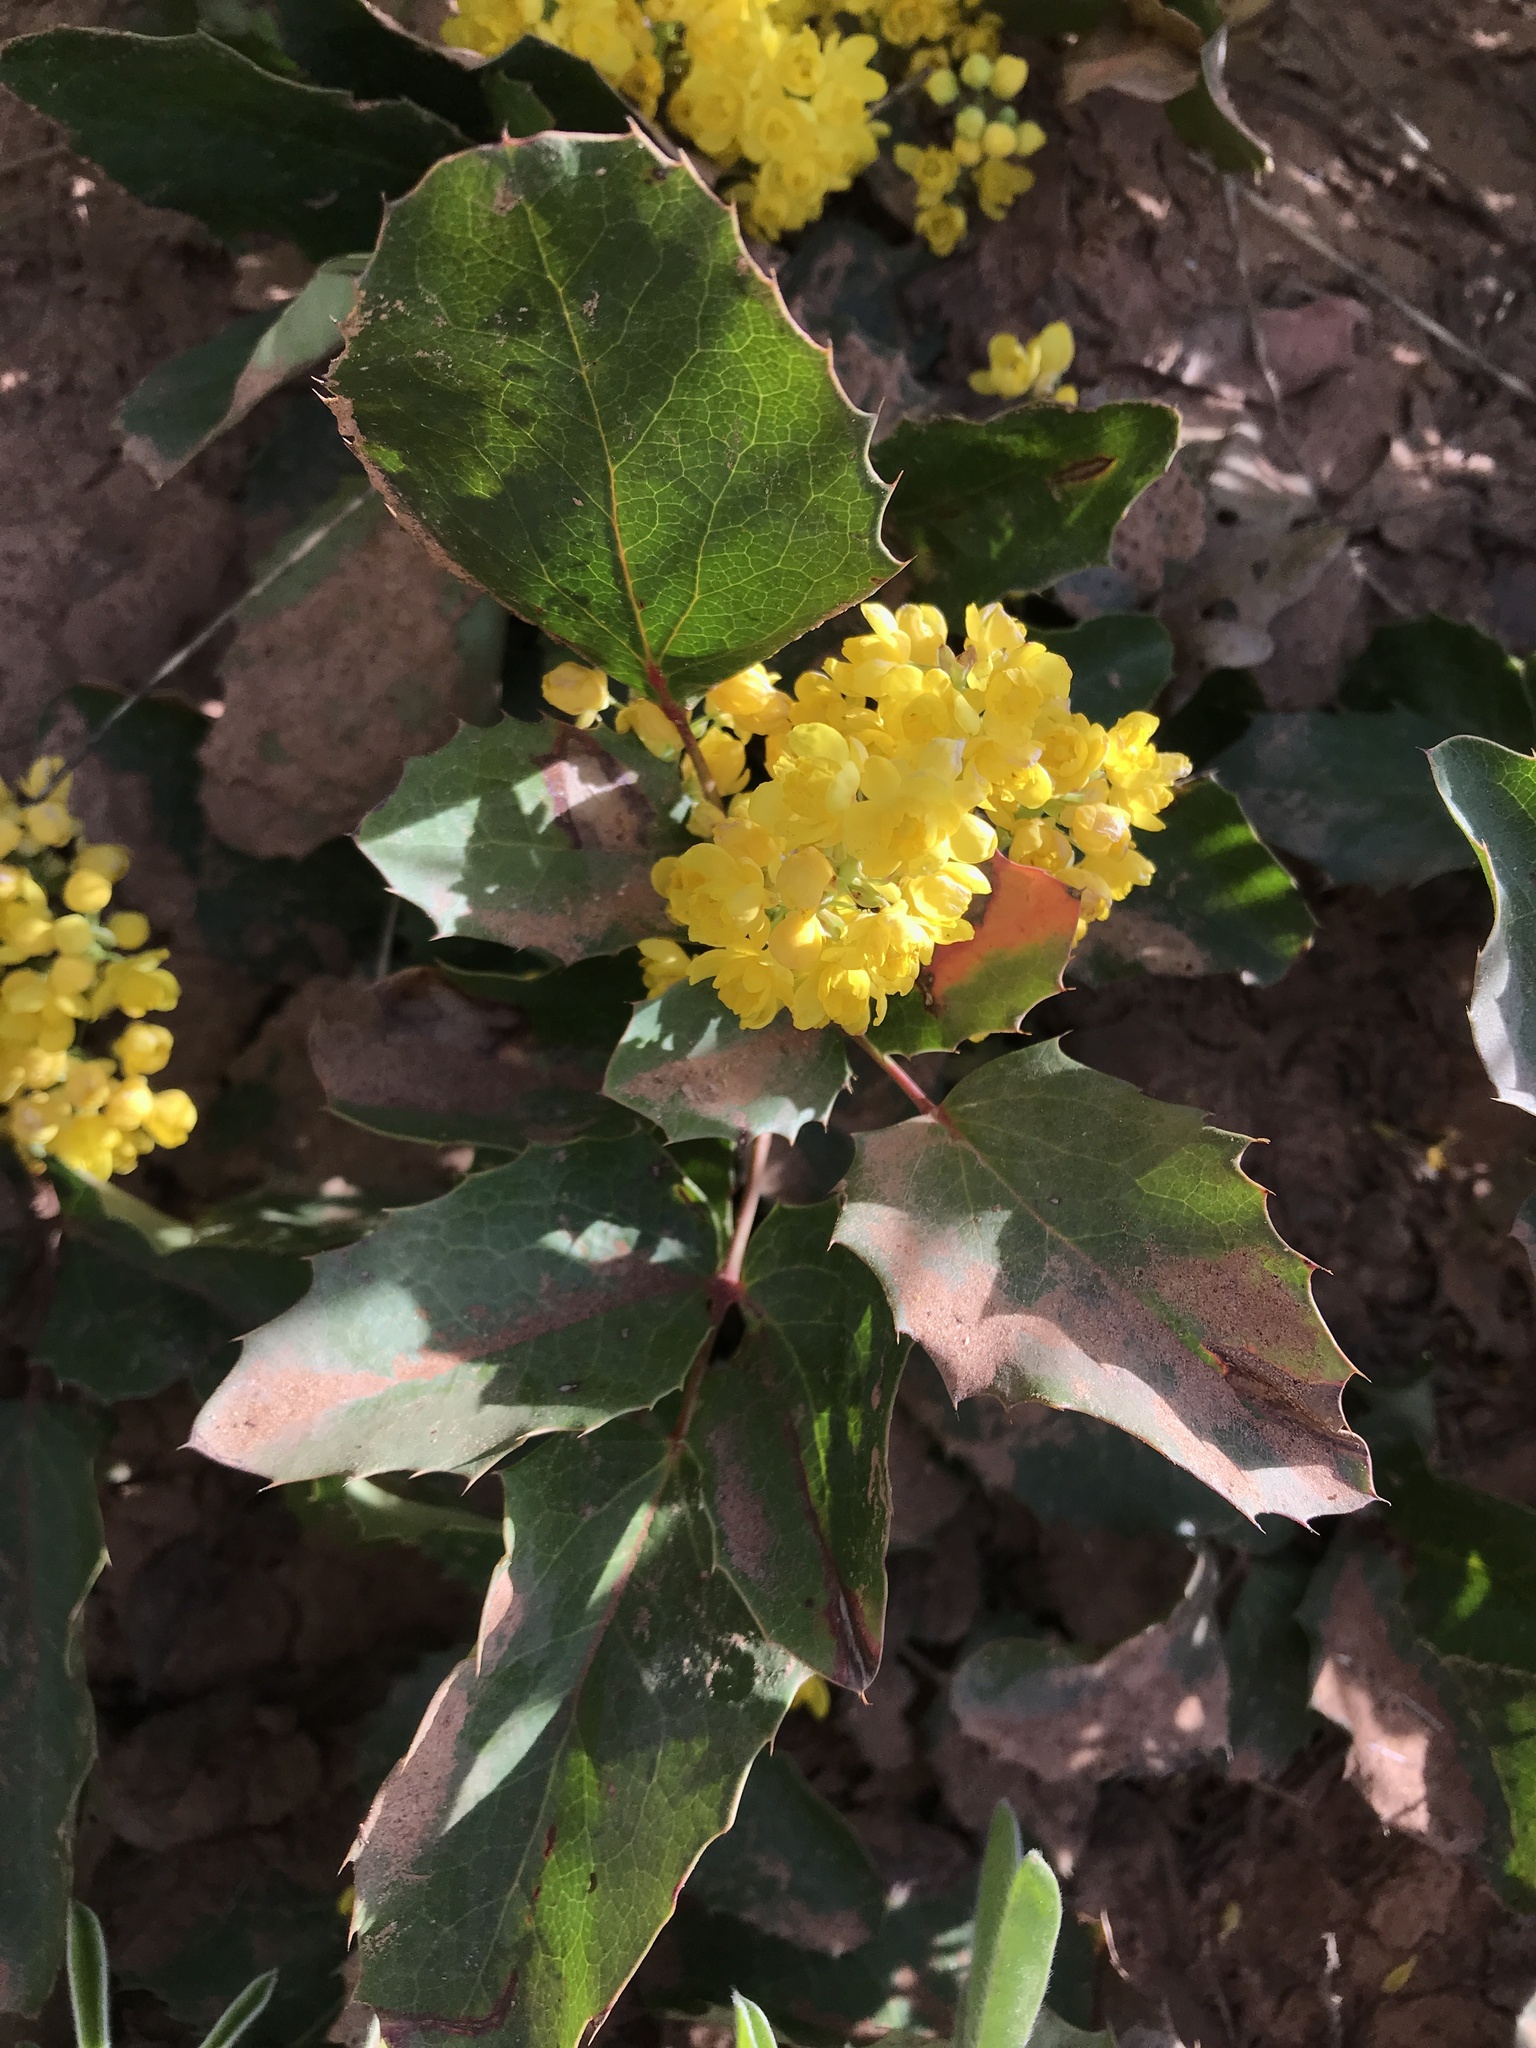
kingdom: Plantae
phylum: Tracheophyta
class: Magnoliopsida
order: Ranunculales
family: Berberidaceae
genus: Mahonia
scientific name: Mahonia repens
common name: Creeping oregon-grape
